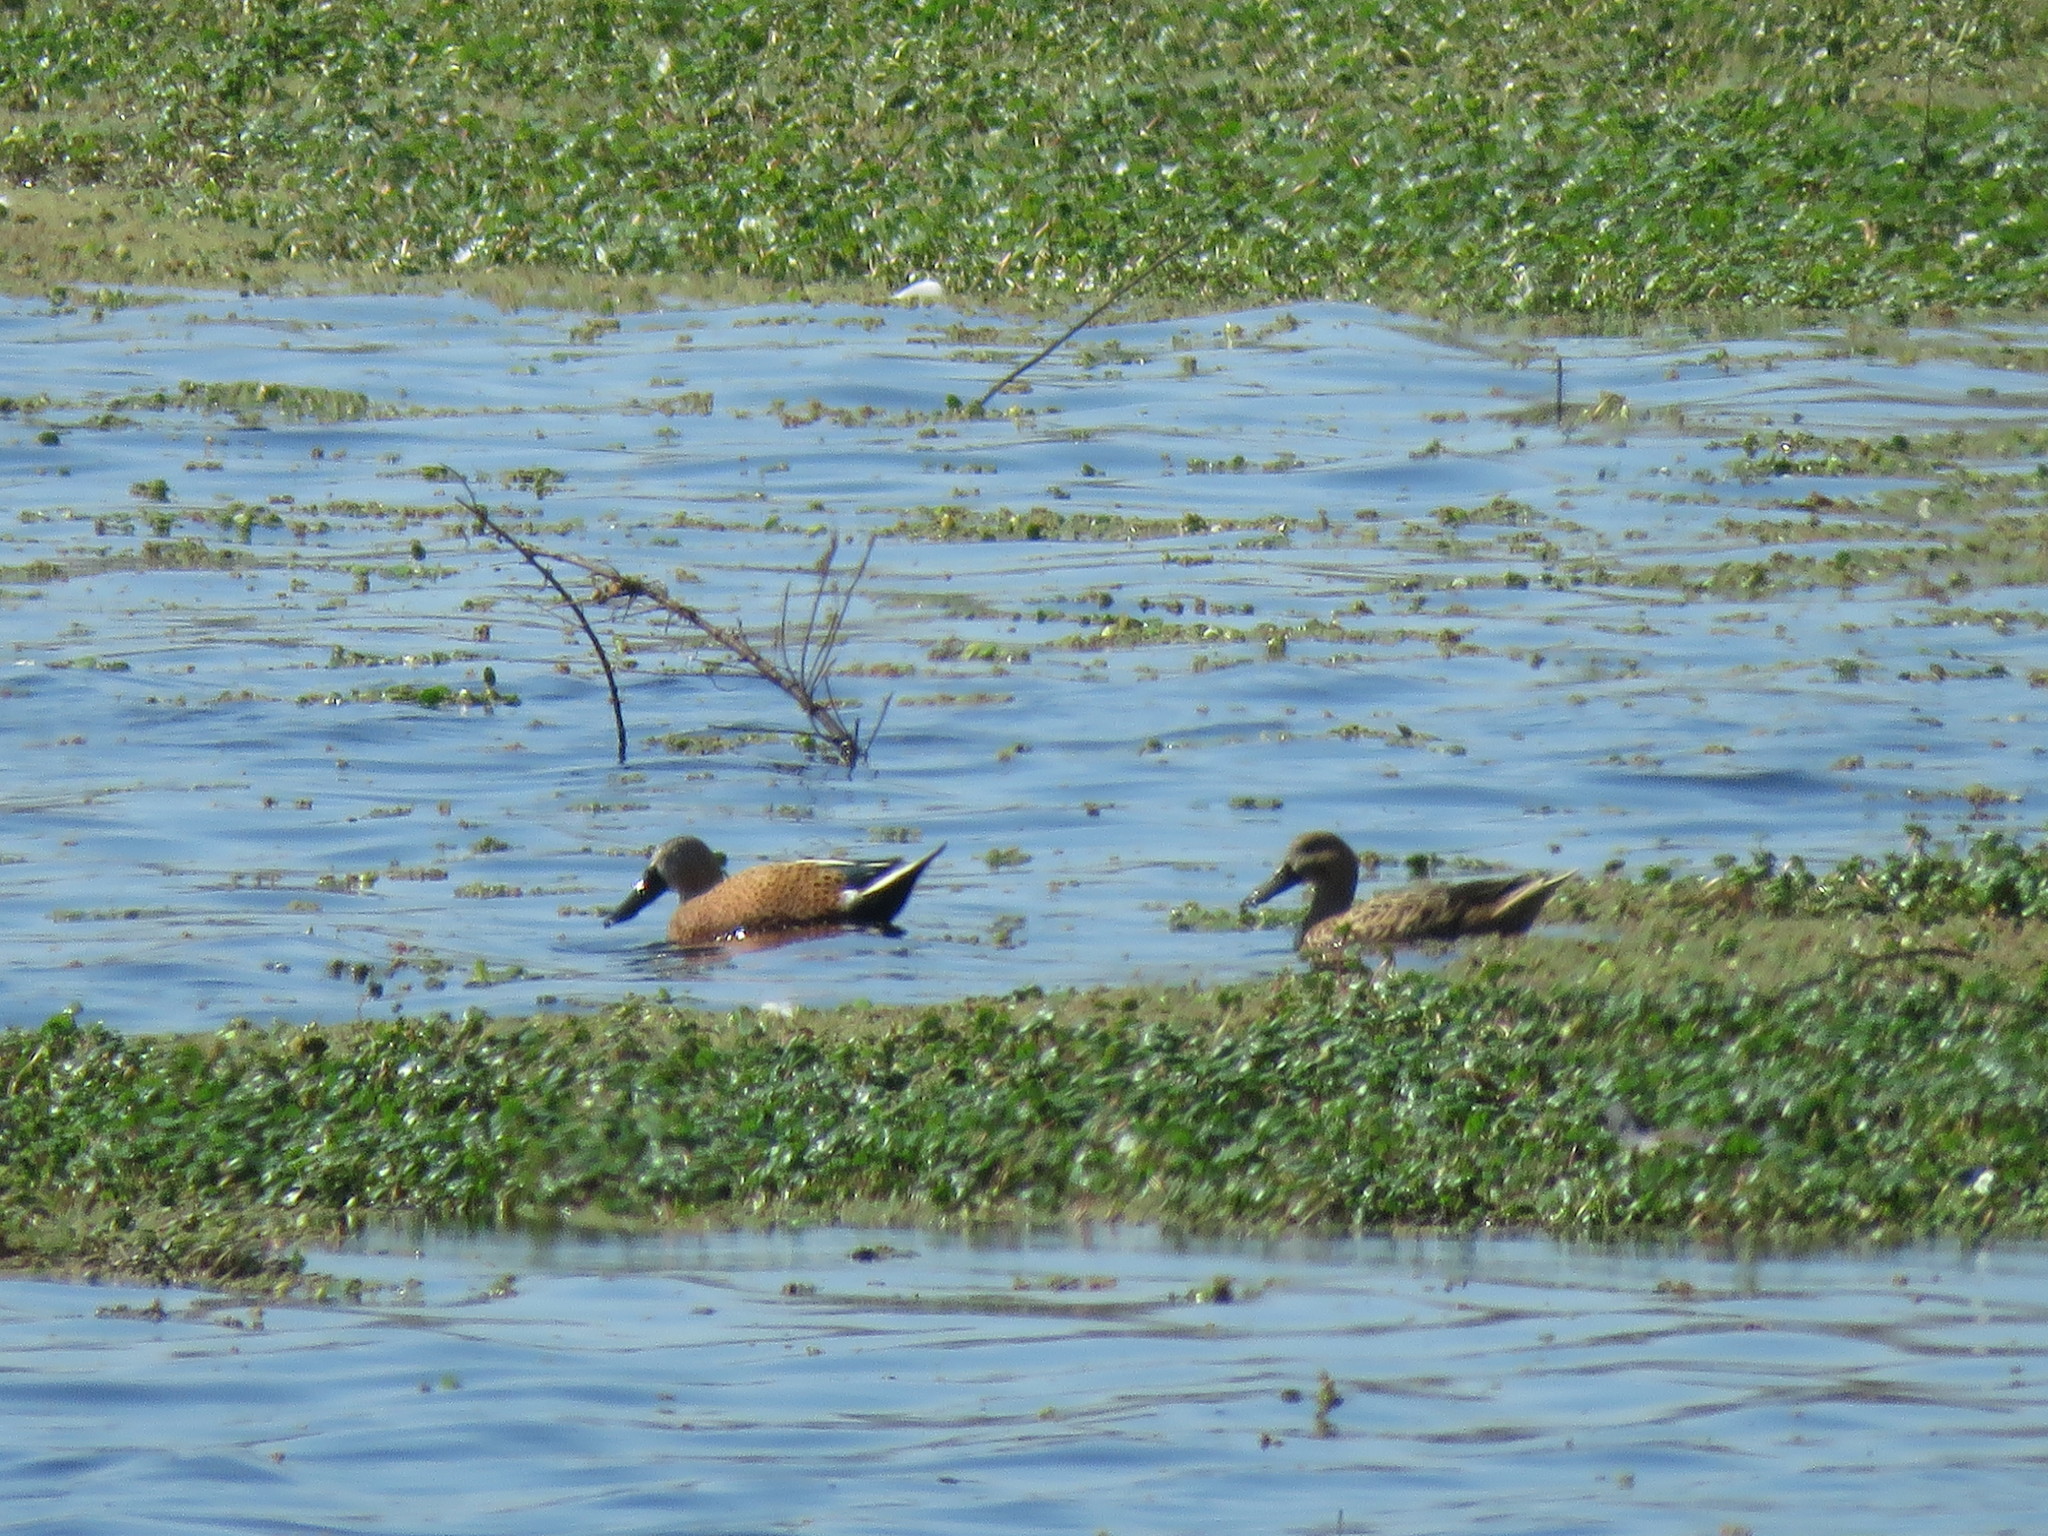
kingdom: Animalia
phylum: Chordata
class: Aves
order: Anseriformes
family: Anatidae
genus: Spatula
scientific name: Spatula platalea
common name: Red shoveler
